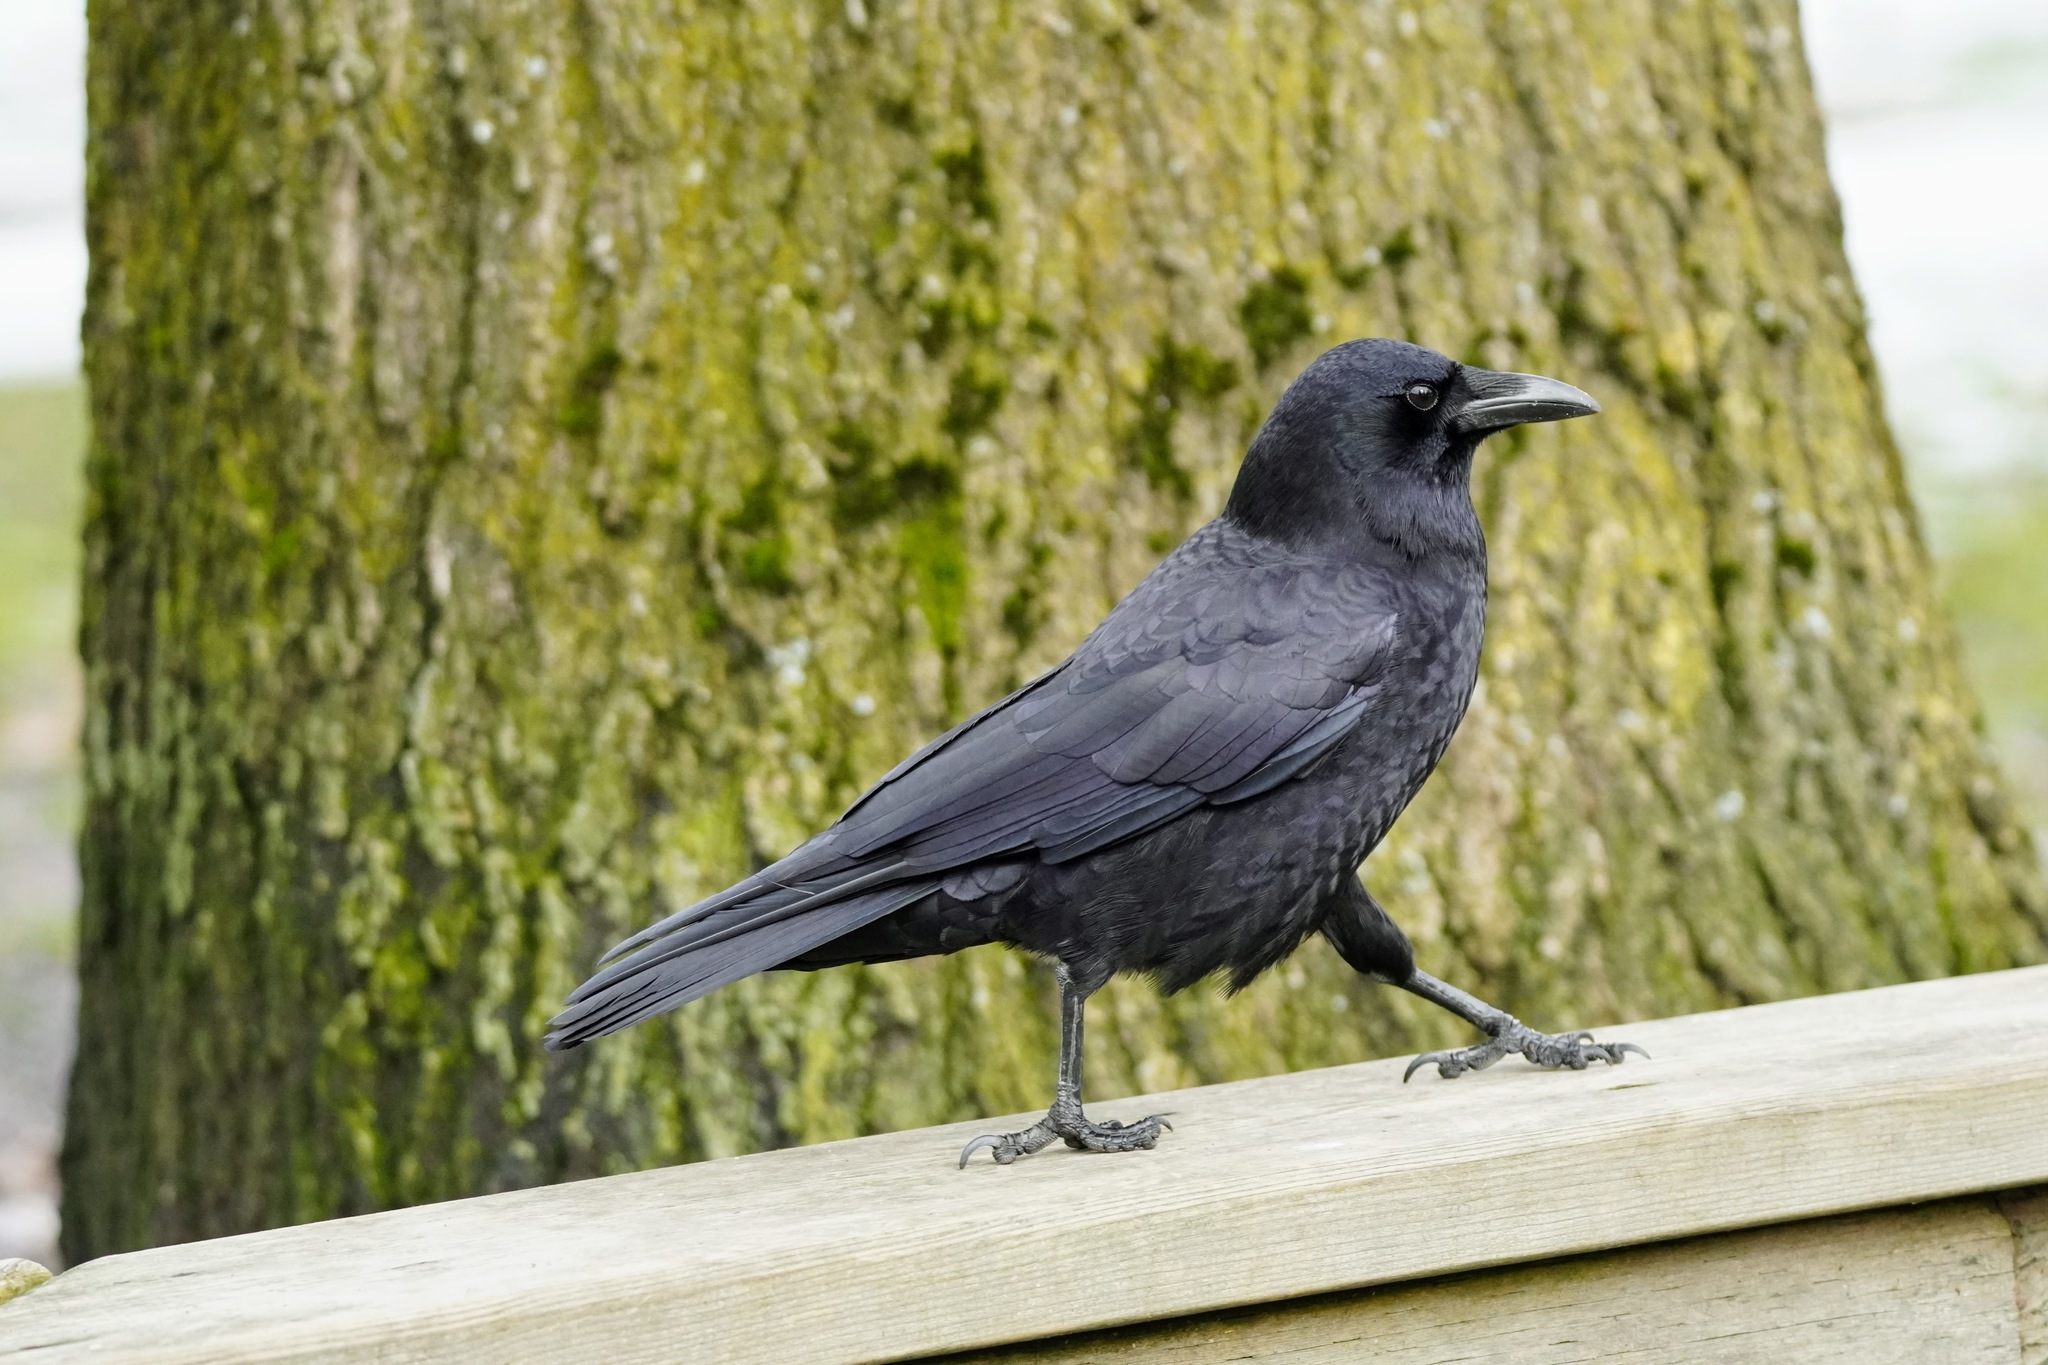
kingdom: Animalia
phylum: Chordata
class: Aves
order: Passeriformes
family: Corvidae
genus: Corvus
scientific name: Corvus brachyrhynchos
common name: American crow
